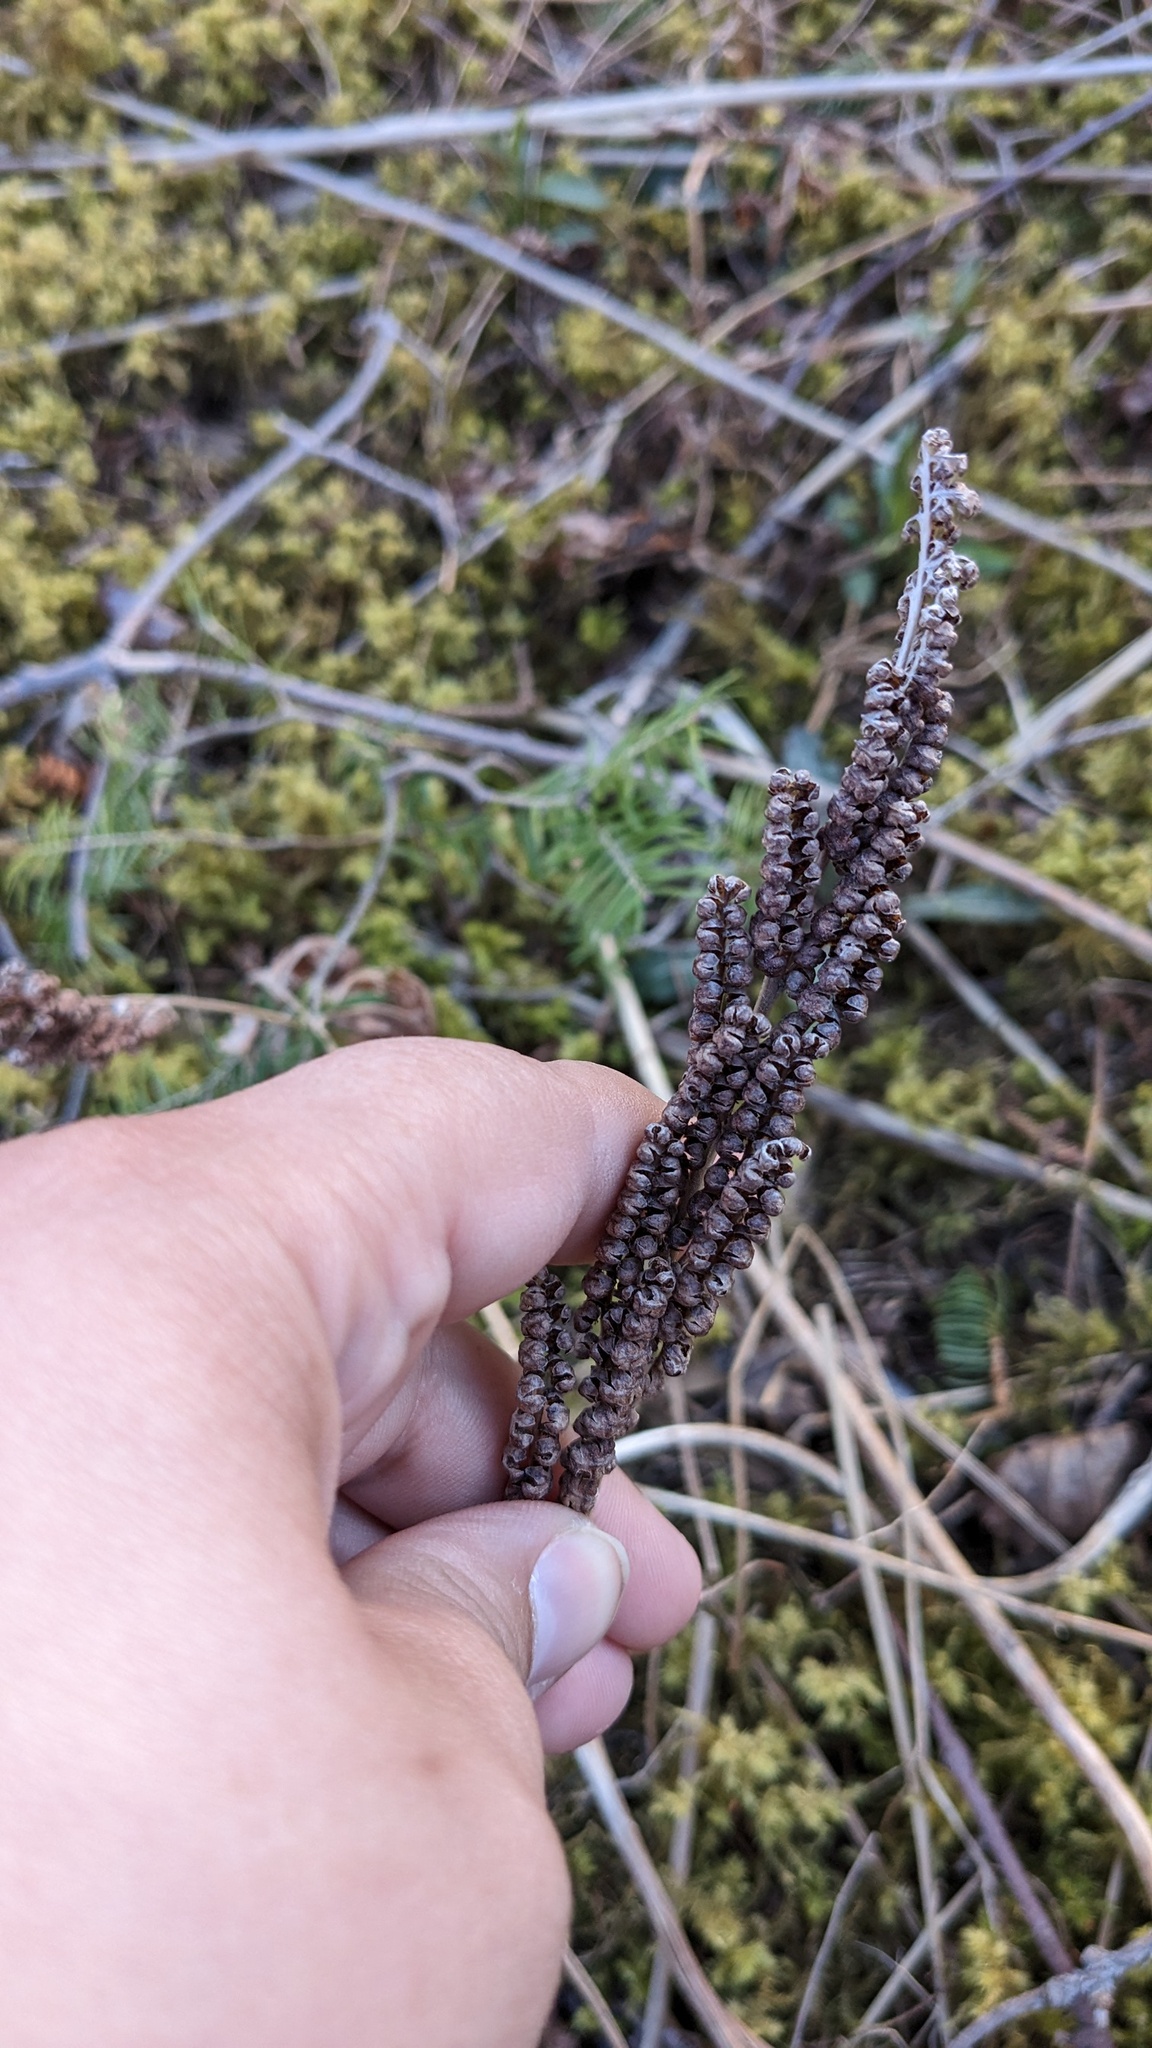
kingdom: Plantae
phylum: Tracheophyta
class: Polypodiopsida
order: Polypodiales
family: Onocleaceae
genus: Onoclea
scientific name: Onoclea sensibilis
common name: Sensitive fern
